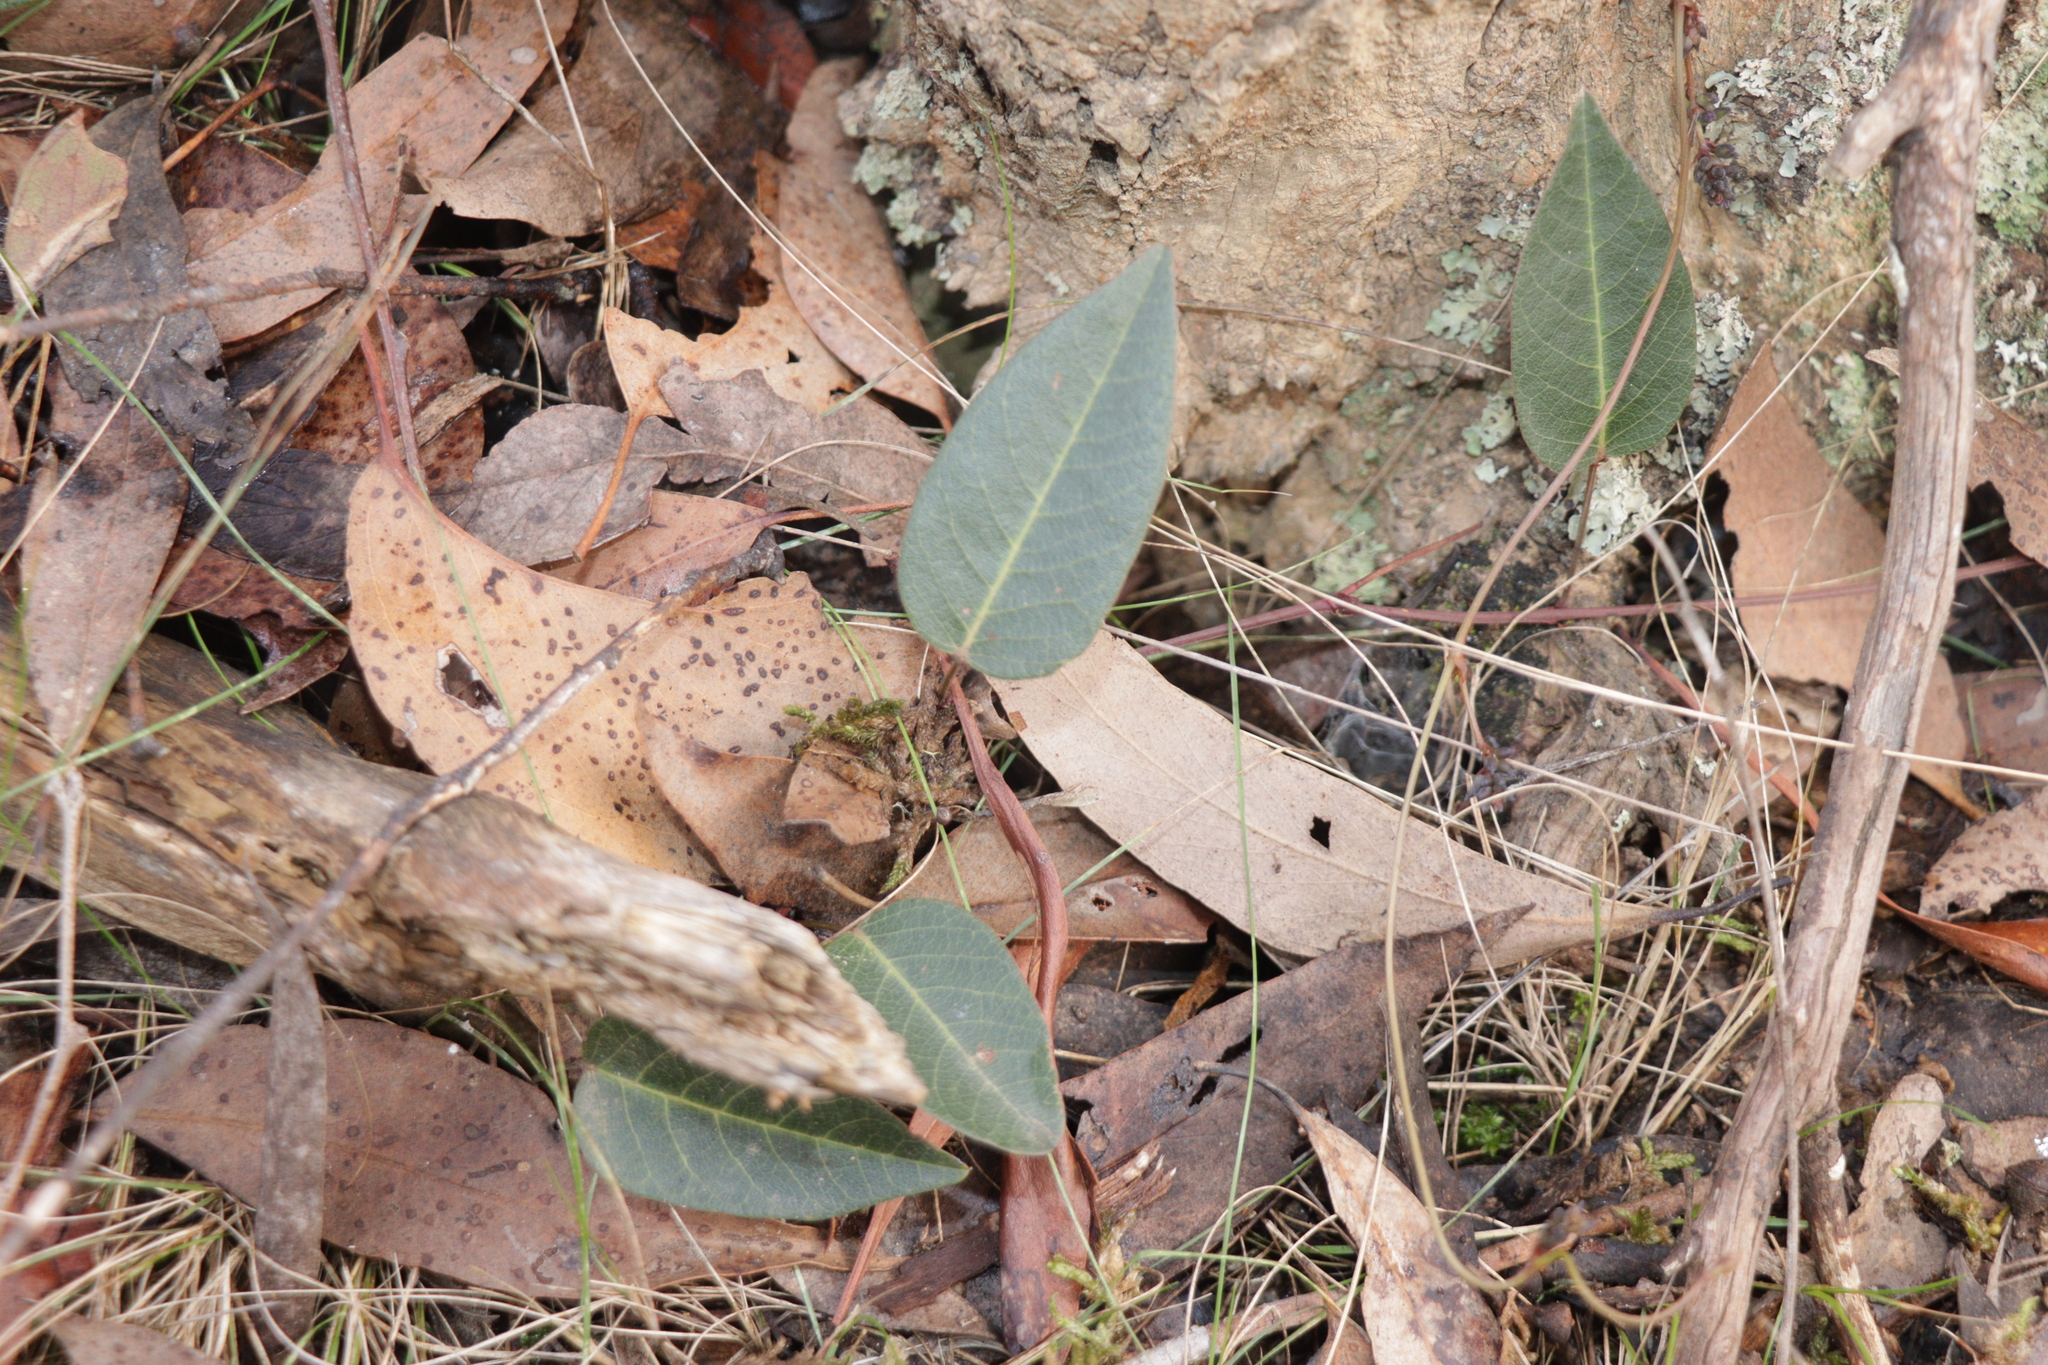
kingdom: Plantae
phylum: Tracheophyta
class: Magnoliopsida
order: Fabales
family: Fabaceae
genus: Hardenbergia
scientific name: Hardenbergia violacea
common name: Coral-pea
